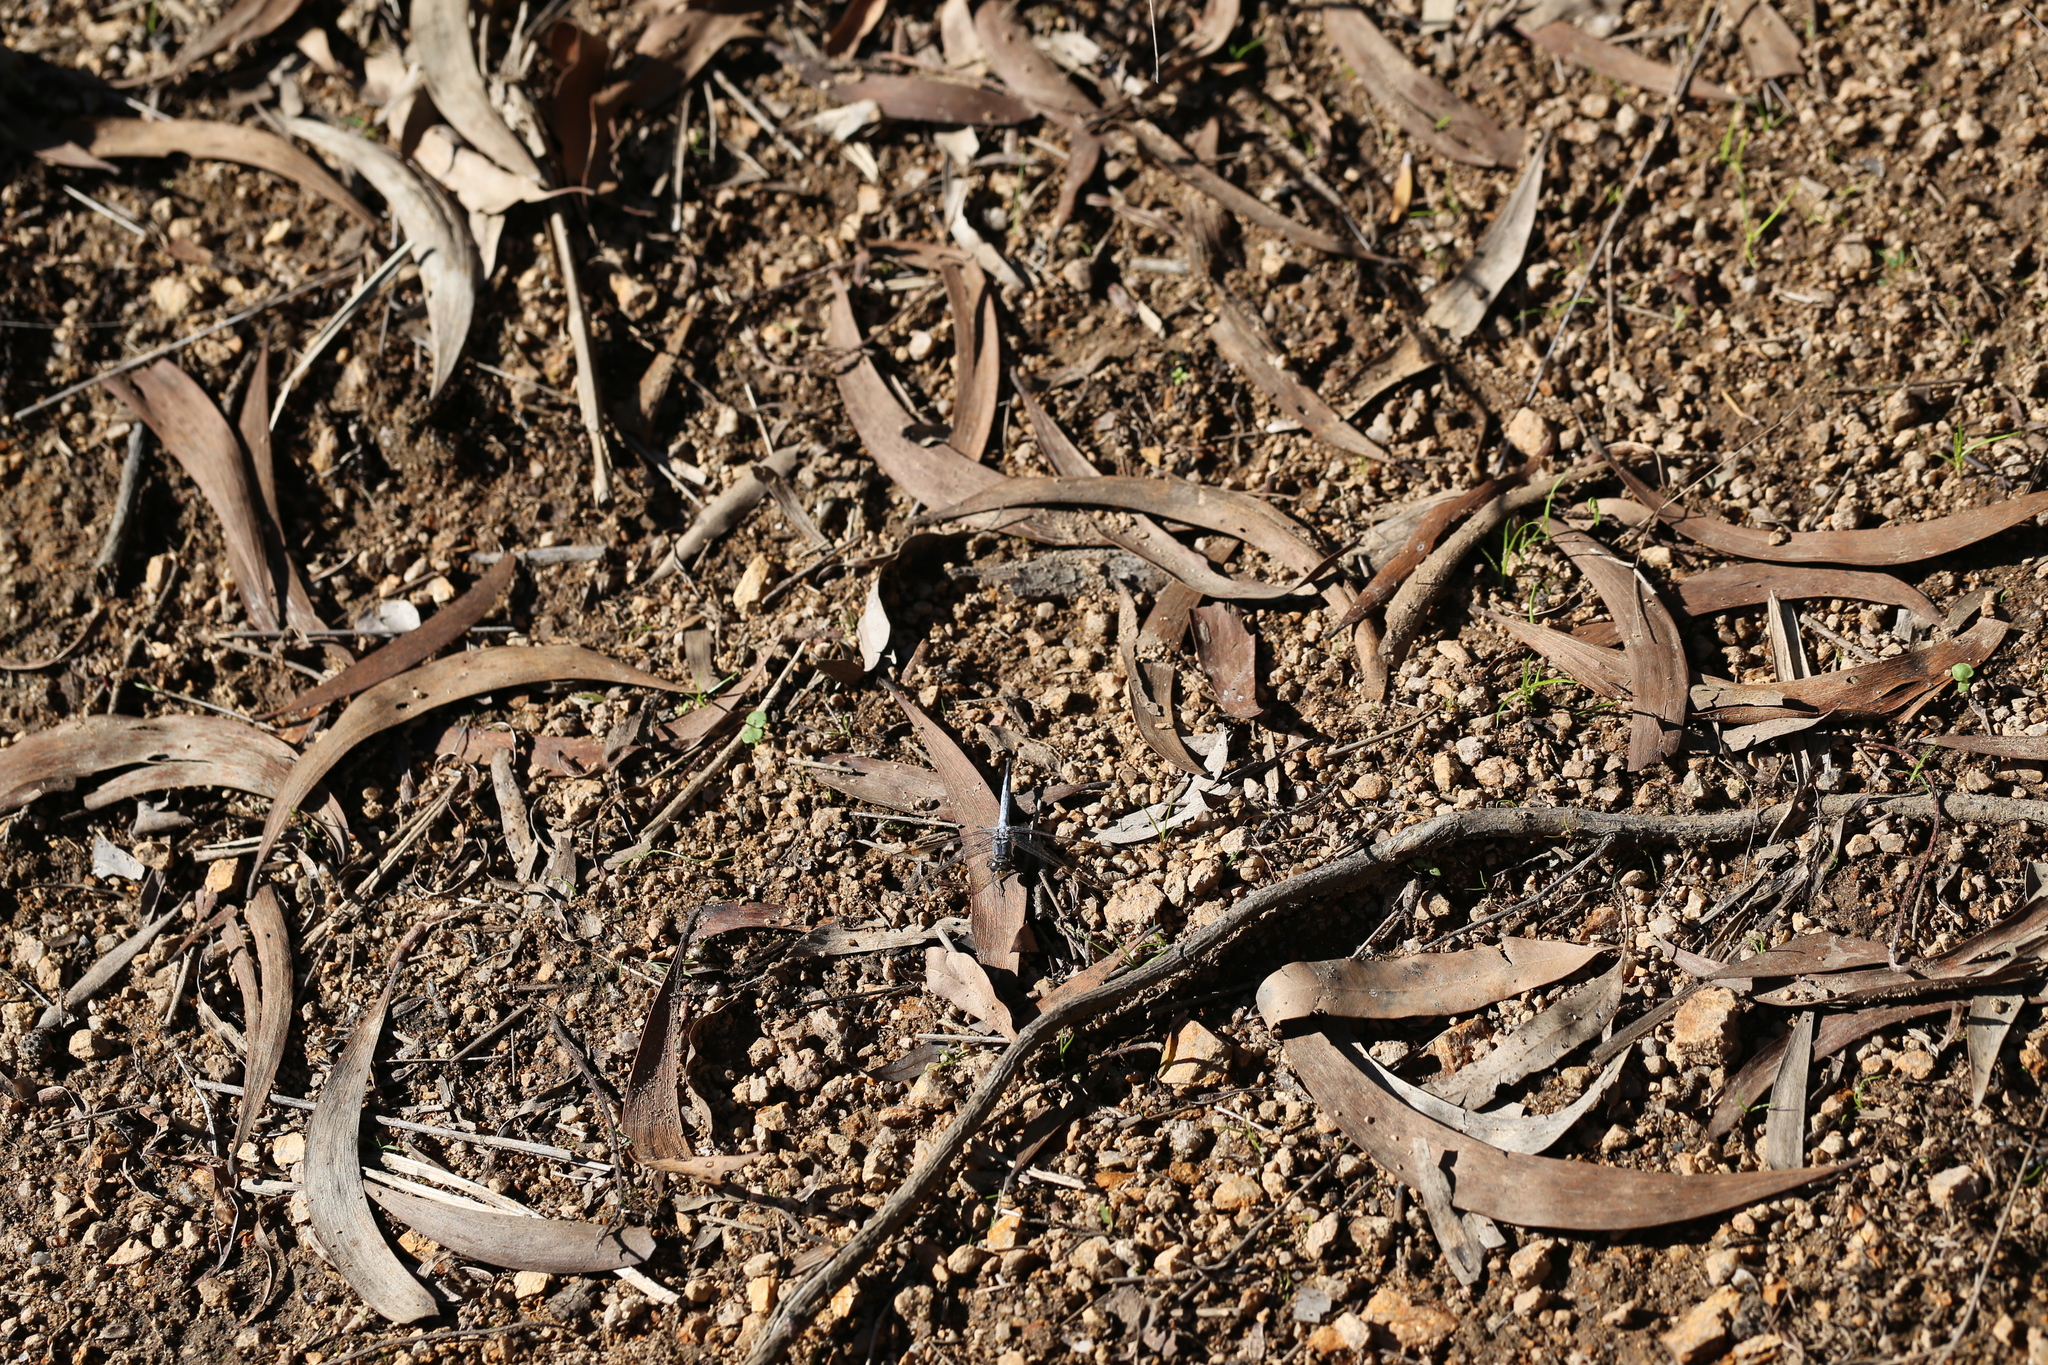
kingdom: Animalia
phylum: Arthropoda
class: Insecta
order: Odonata
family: Libellulidae
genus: Orthetrum
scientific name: Orthetrum caledonicum
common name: Blue skimmer
